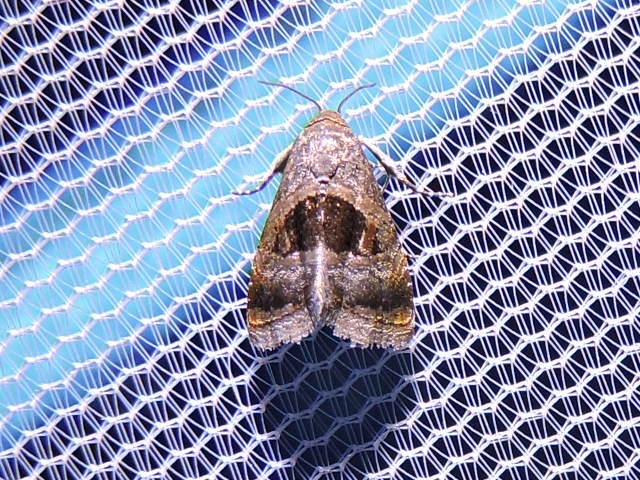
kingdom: Animalia
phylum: Arthropoda
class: Insecta
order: Lepidoptera
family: Noctuidae
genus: Tripudia
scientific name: Tripudia quadrifera
